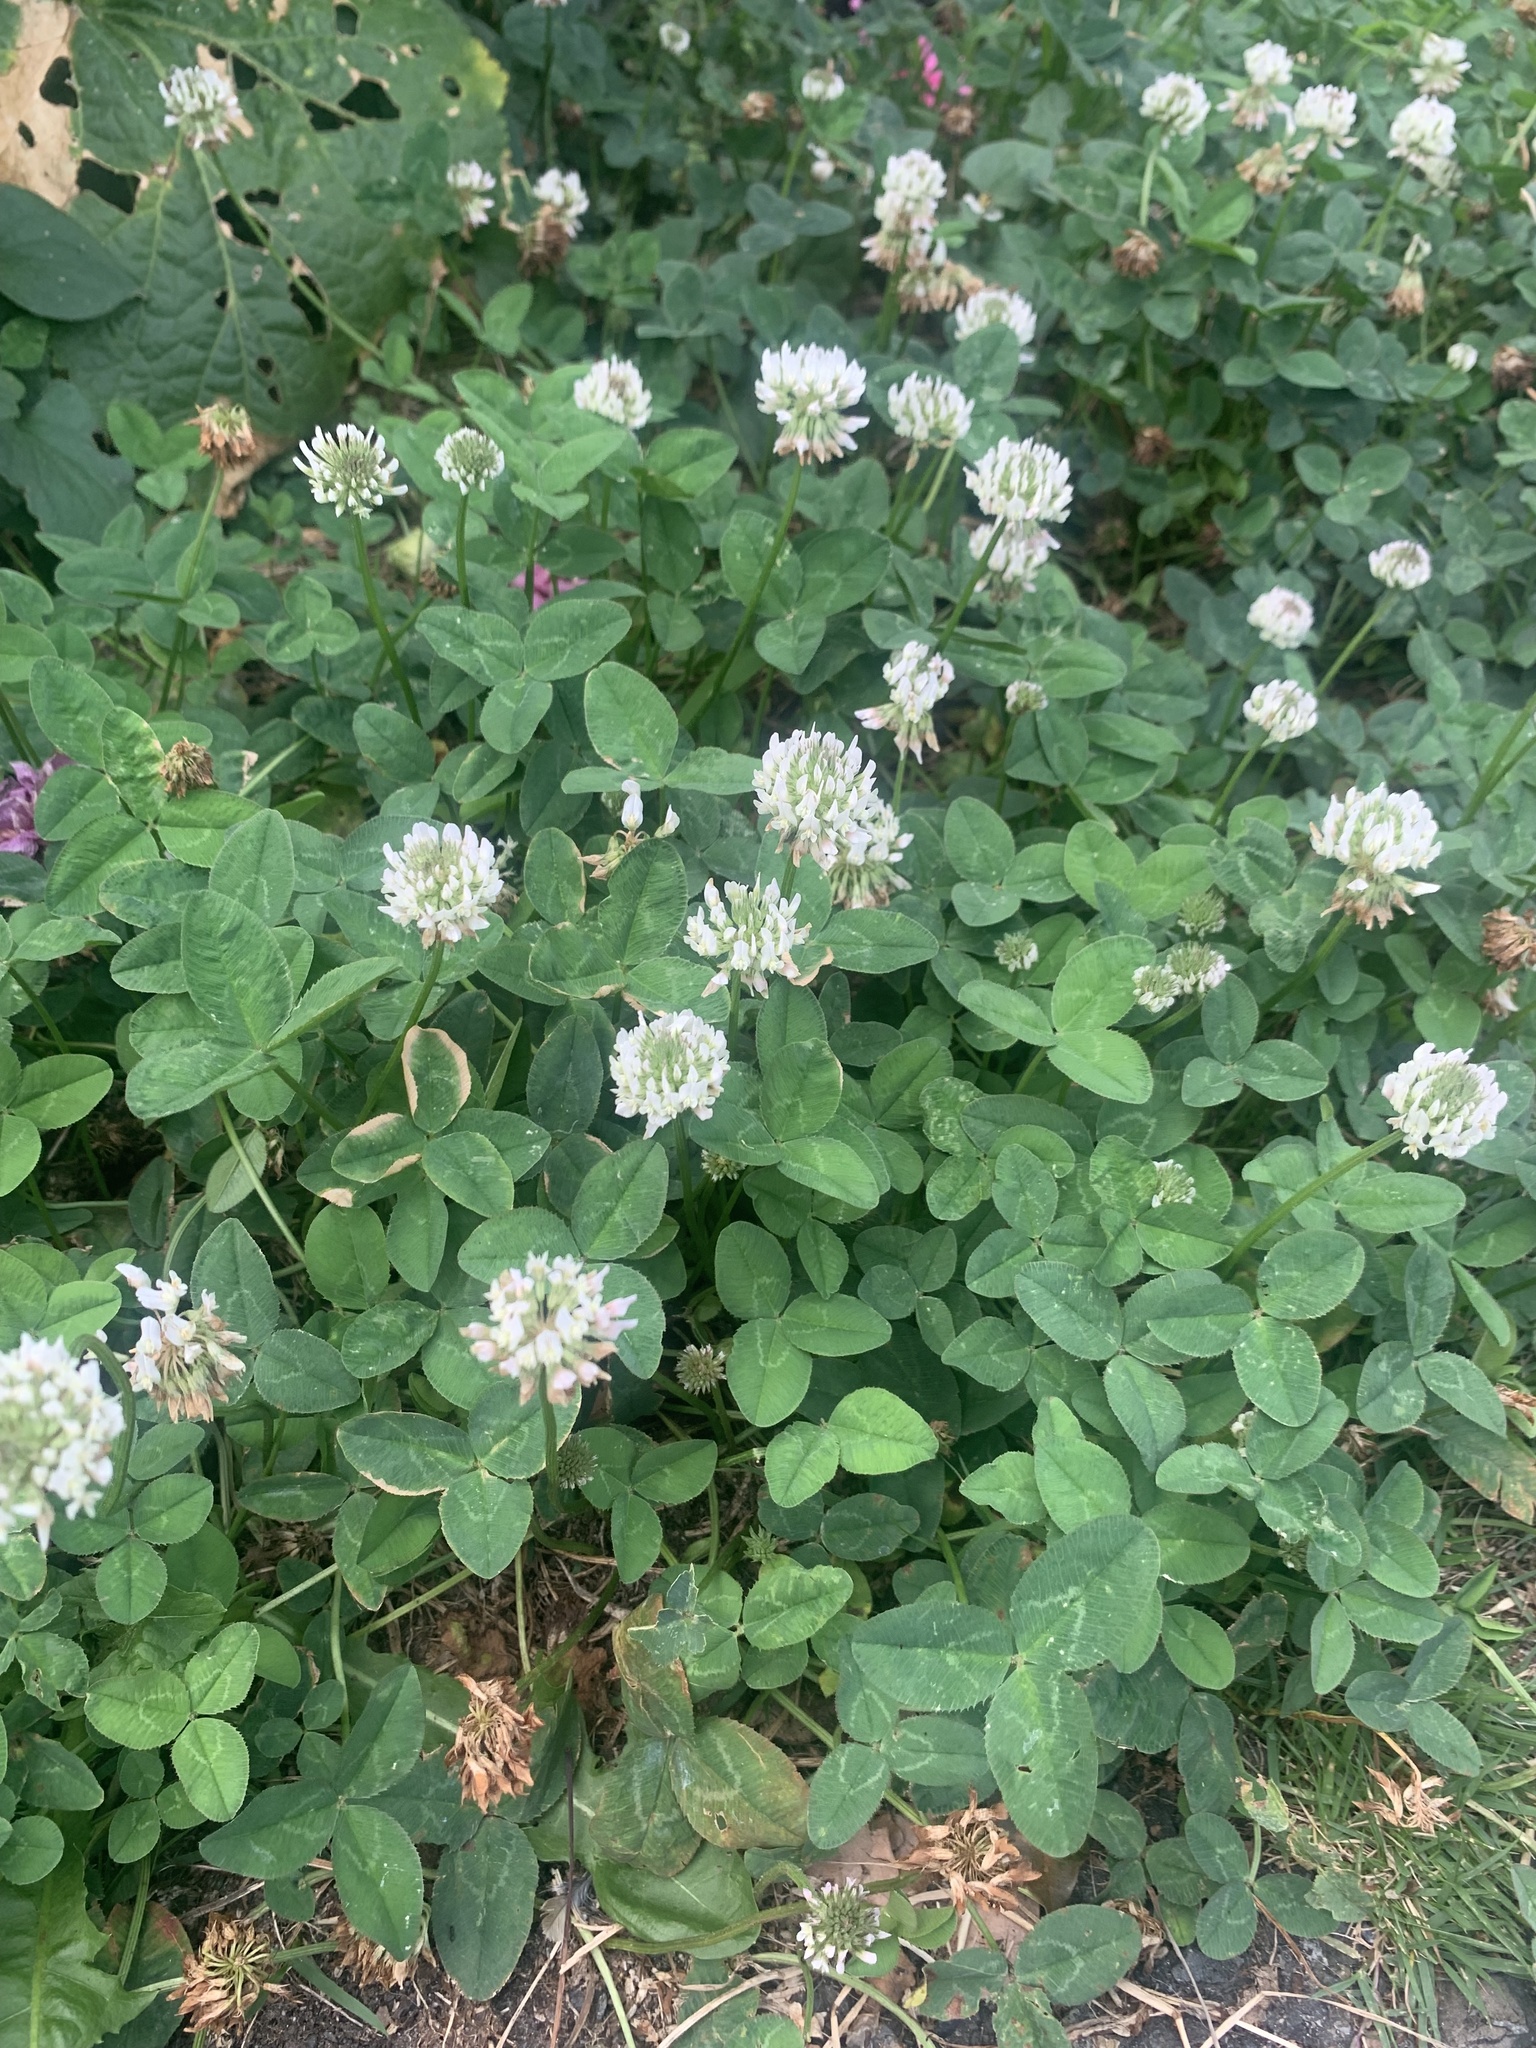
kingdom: Plantae
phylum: Tracheophyta
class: Magnoliopsida
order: Fabales
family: Fabaceae
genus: Trifolium
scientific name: Trifolium repens
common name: White clover
